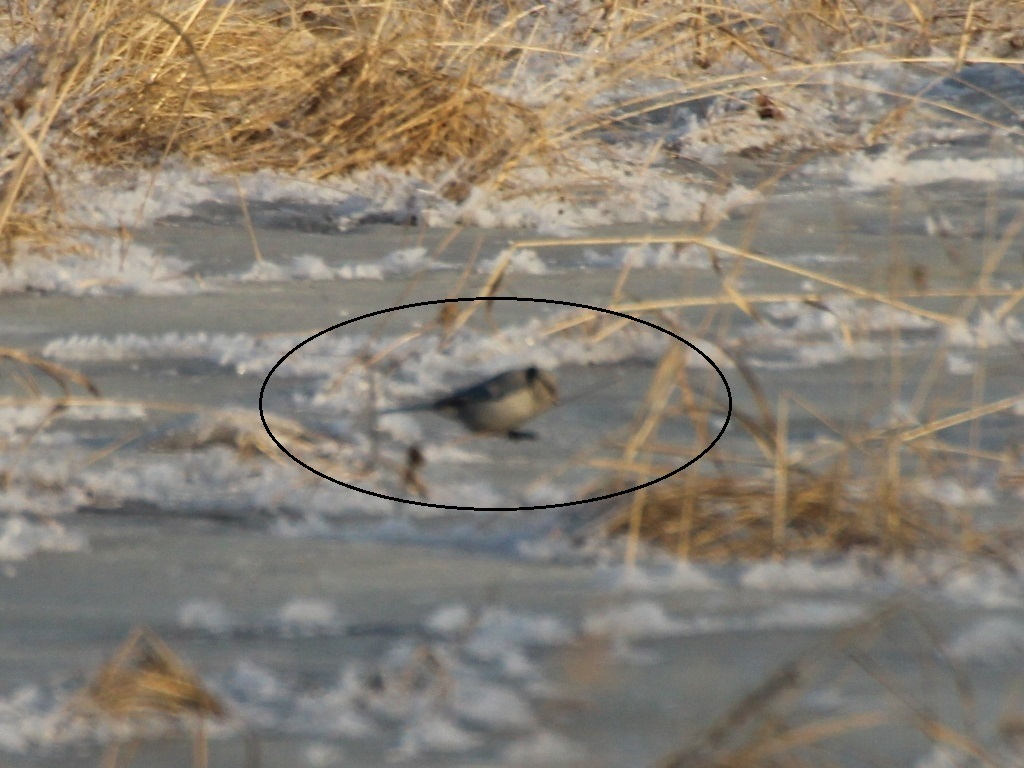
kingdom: Animalia
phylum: Chordata
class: Aves
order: Passeriformes
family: Paridae
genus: Cyanistes
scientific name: Cyanistes cyanus
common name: Azure tit
